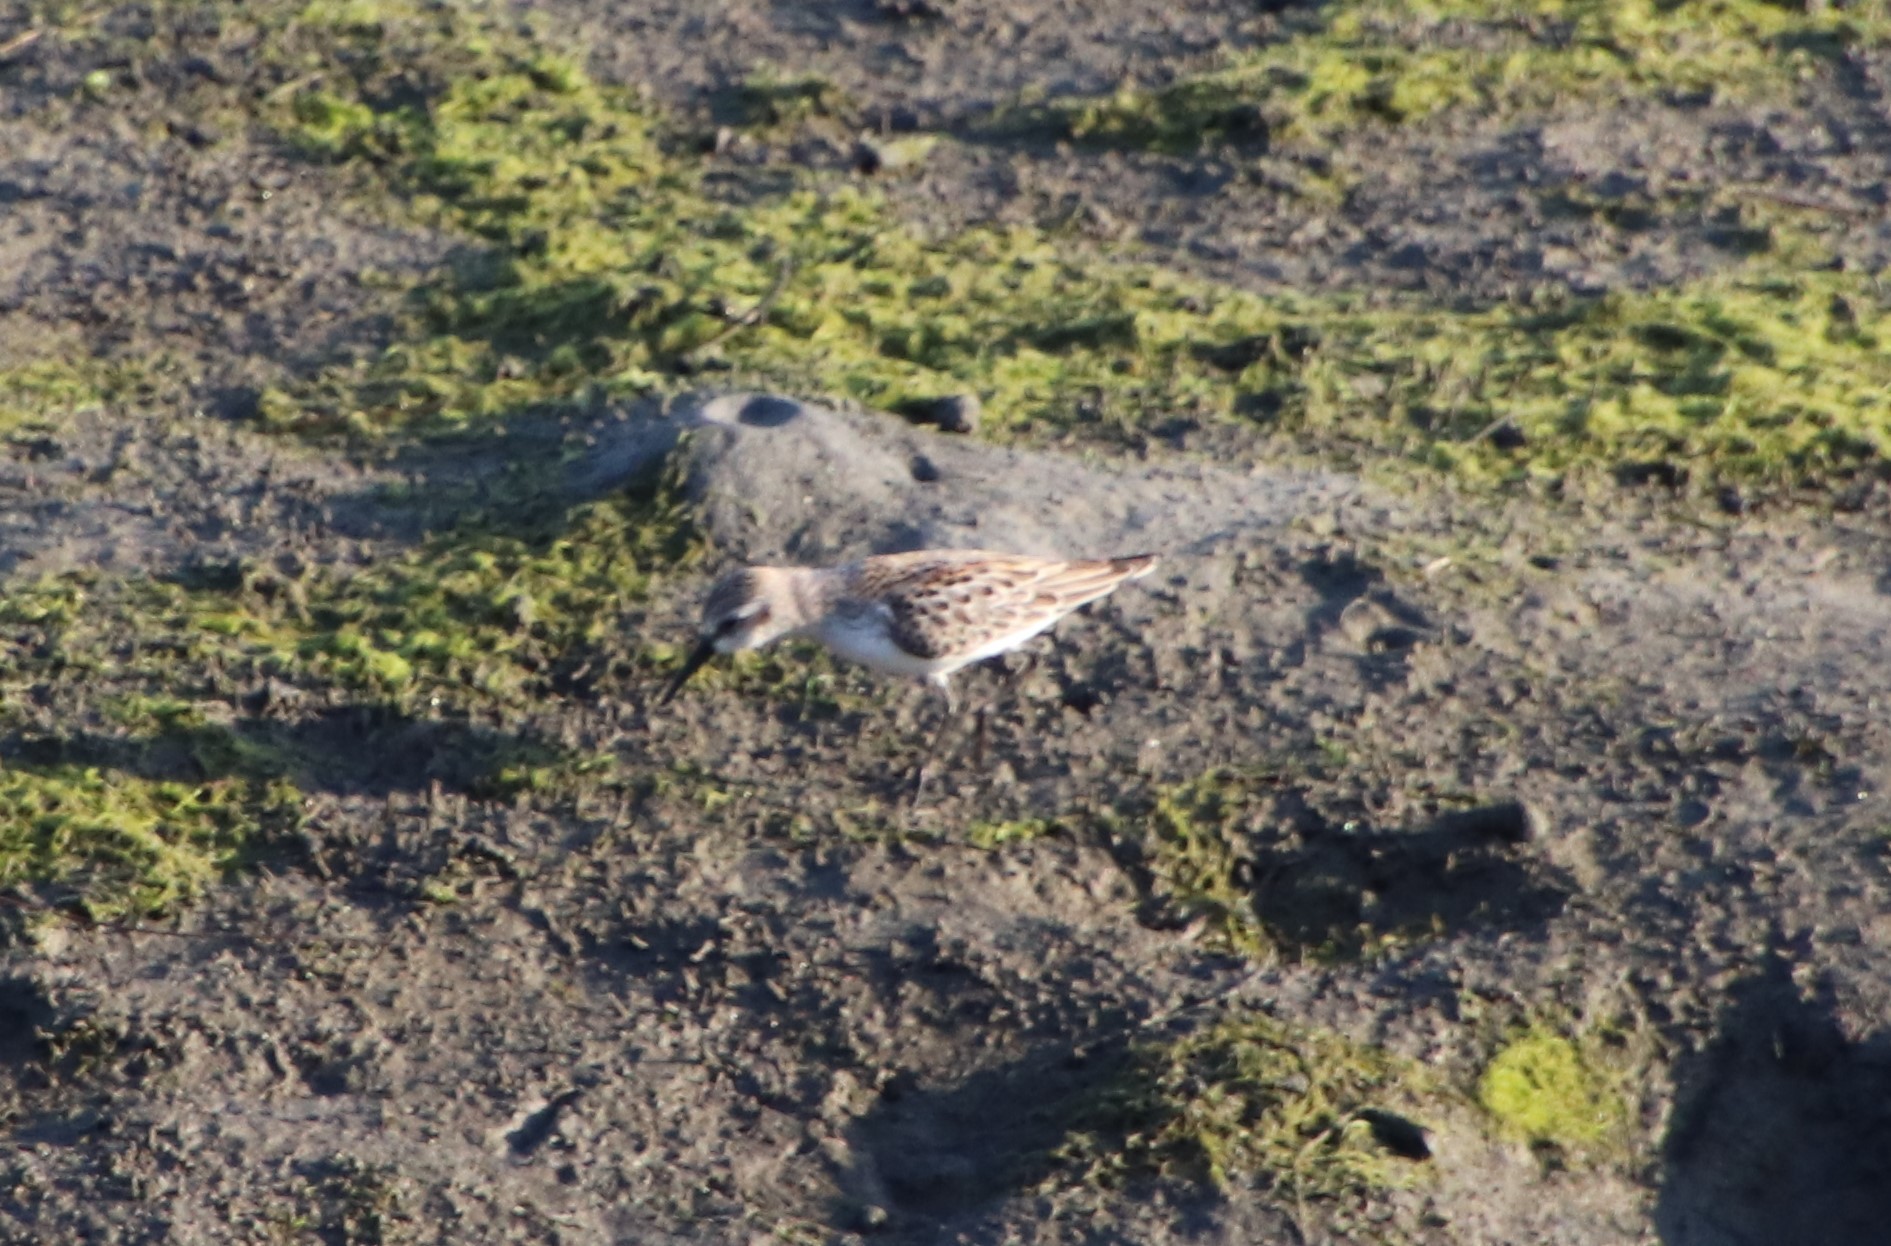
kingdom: Animalia
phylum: Chordata
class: Aves
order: Charadriiformes
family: Scolopacidae
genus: Calidris
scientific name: Calidris mauri
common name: Western sandpiper
